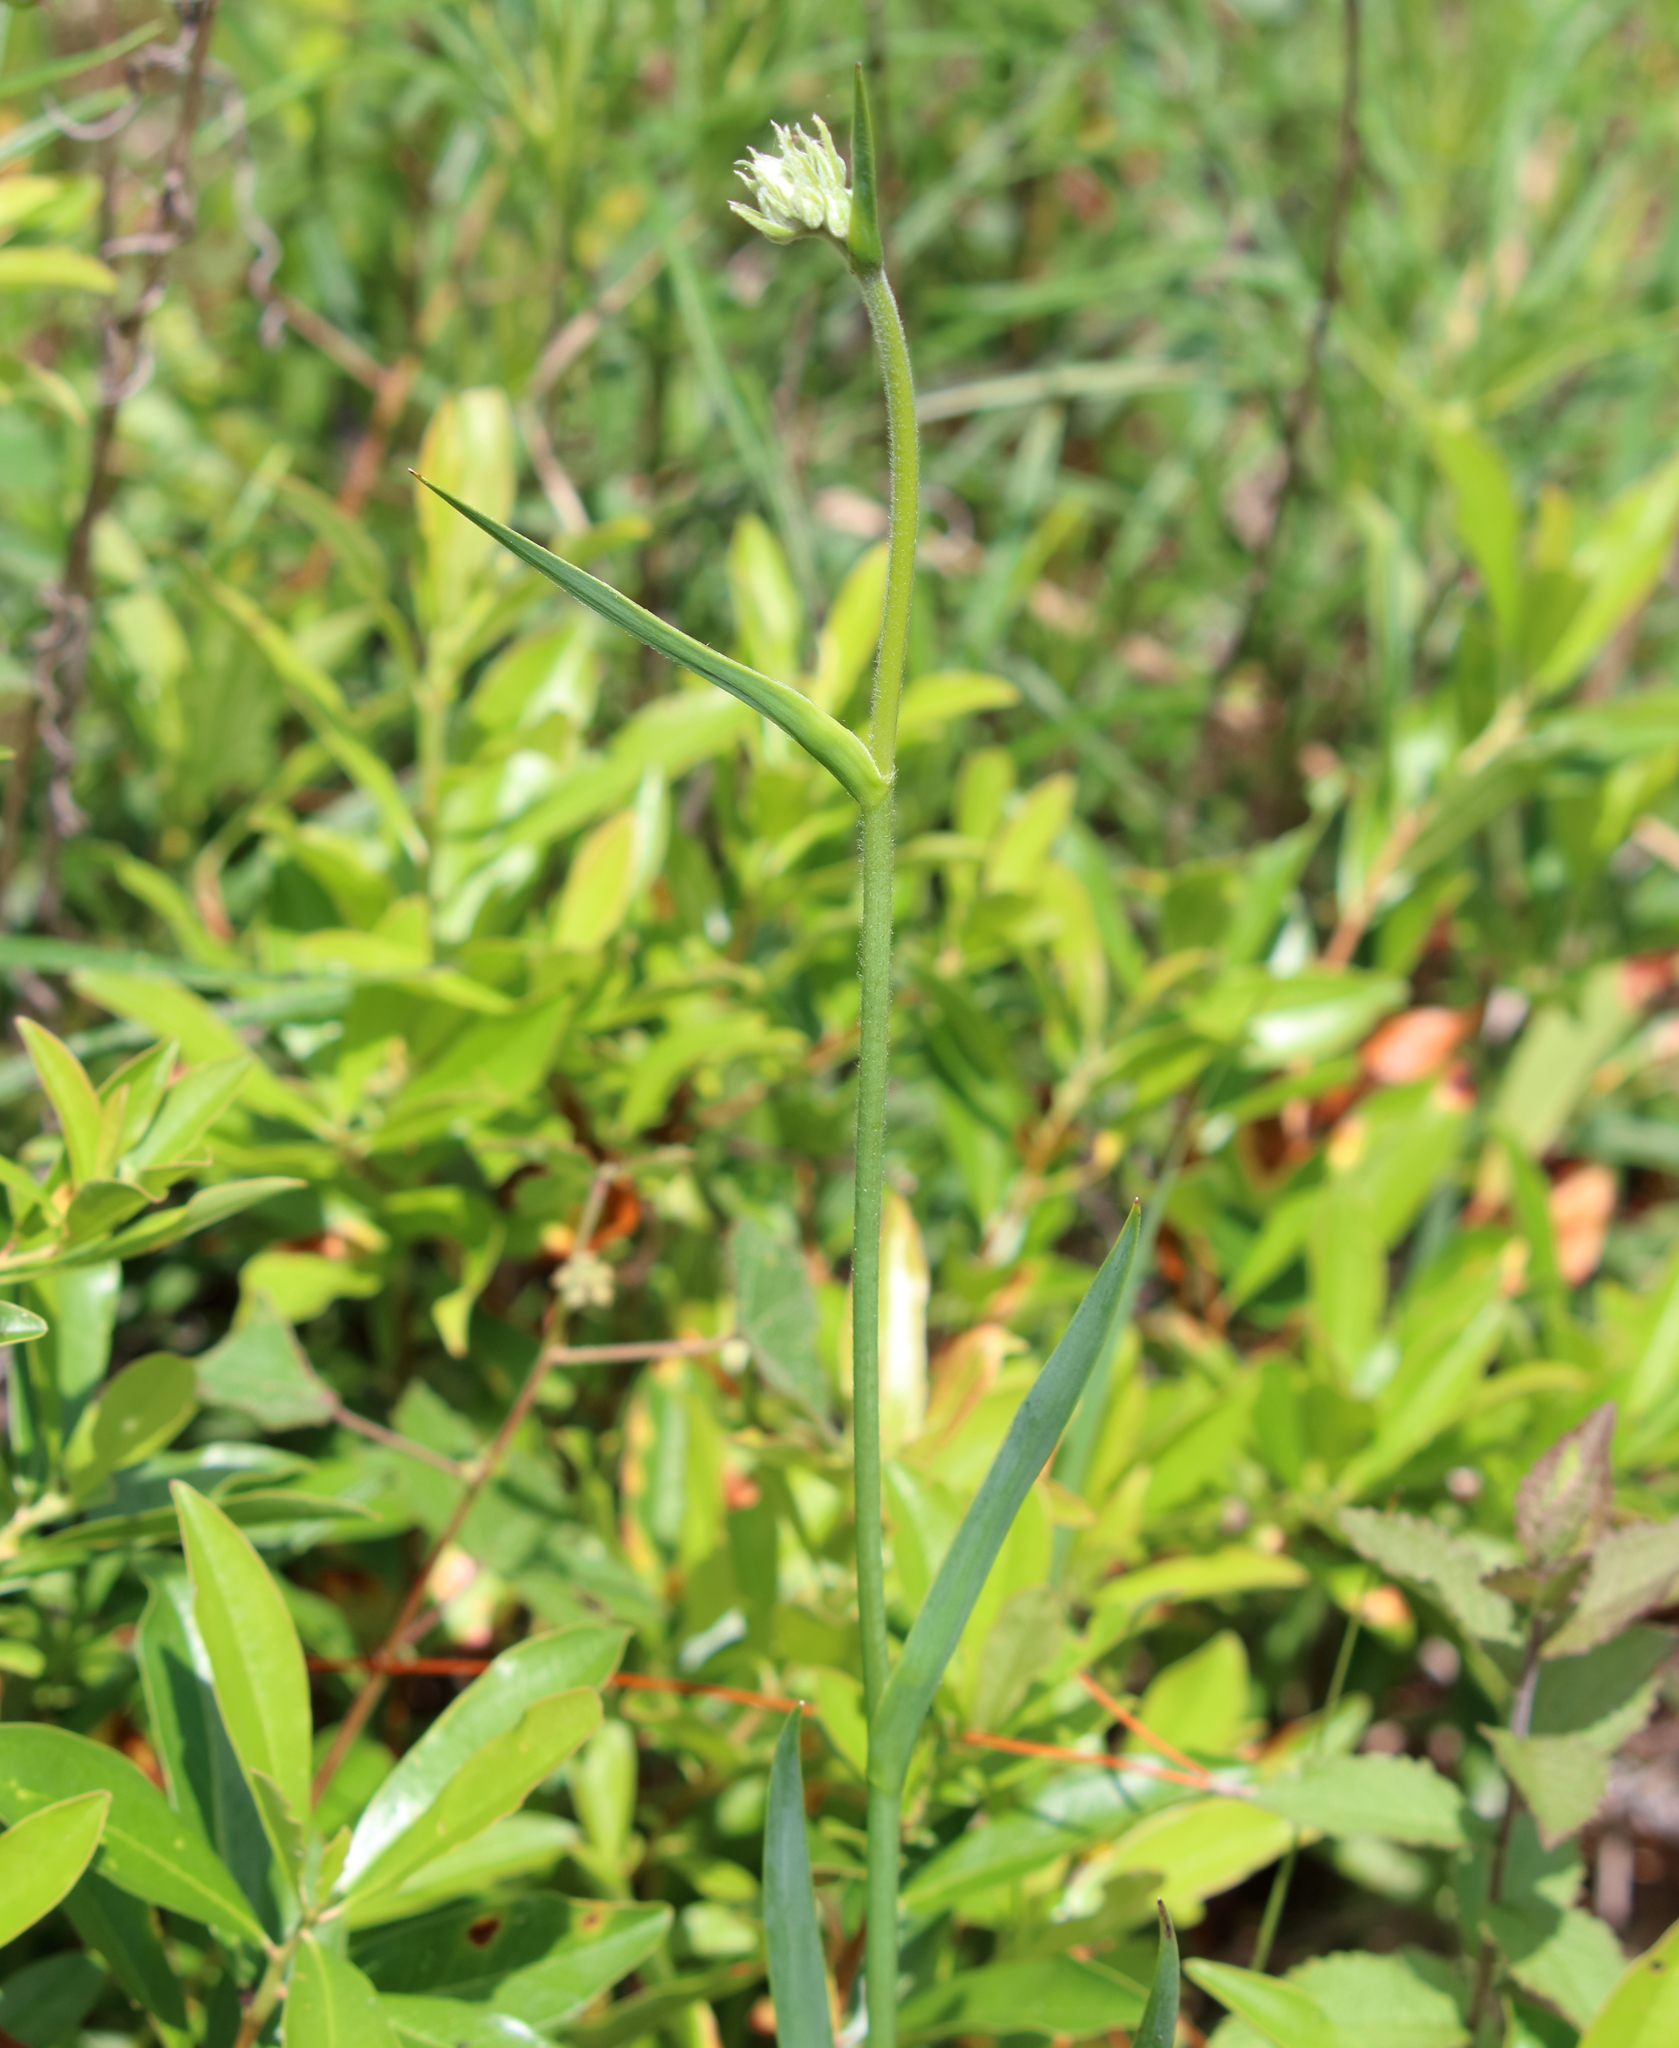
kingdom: Plantae
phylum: Tracheophyta
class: Liliopsida
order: Commelinales
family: Haemodoraceae
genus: Lachnanthes
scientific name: Lachnanthes caroliana
